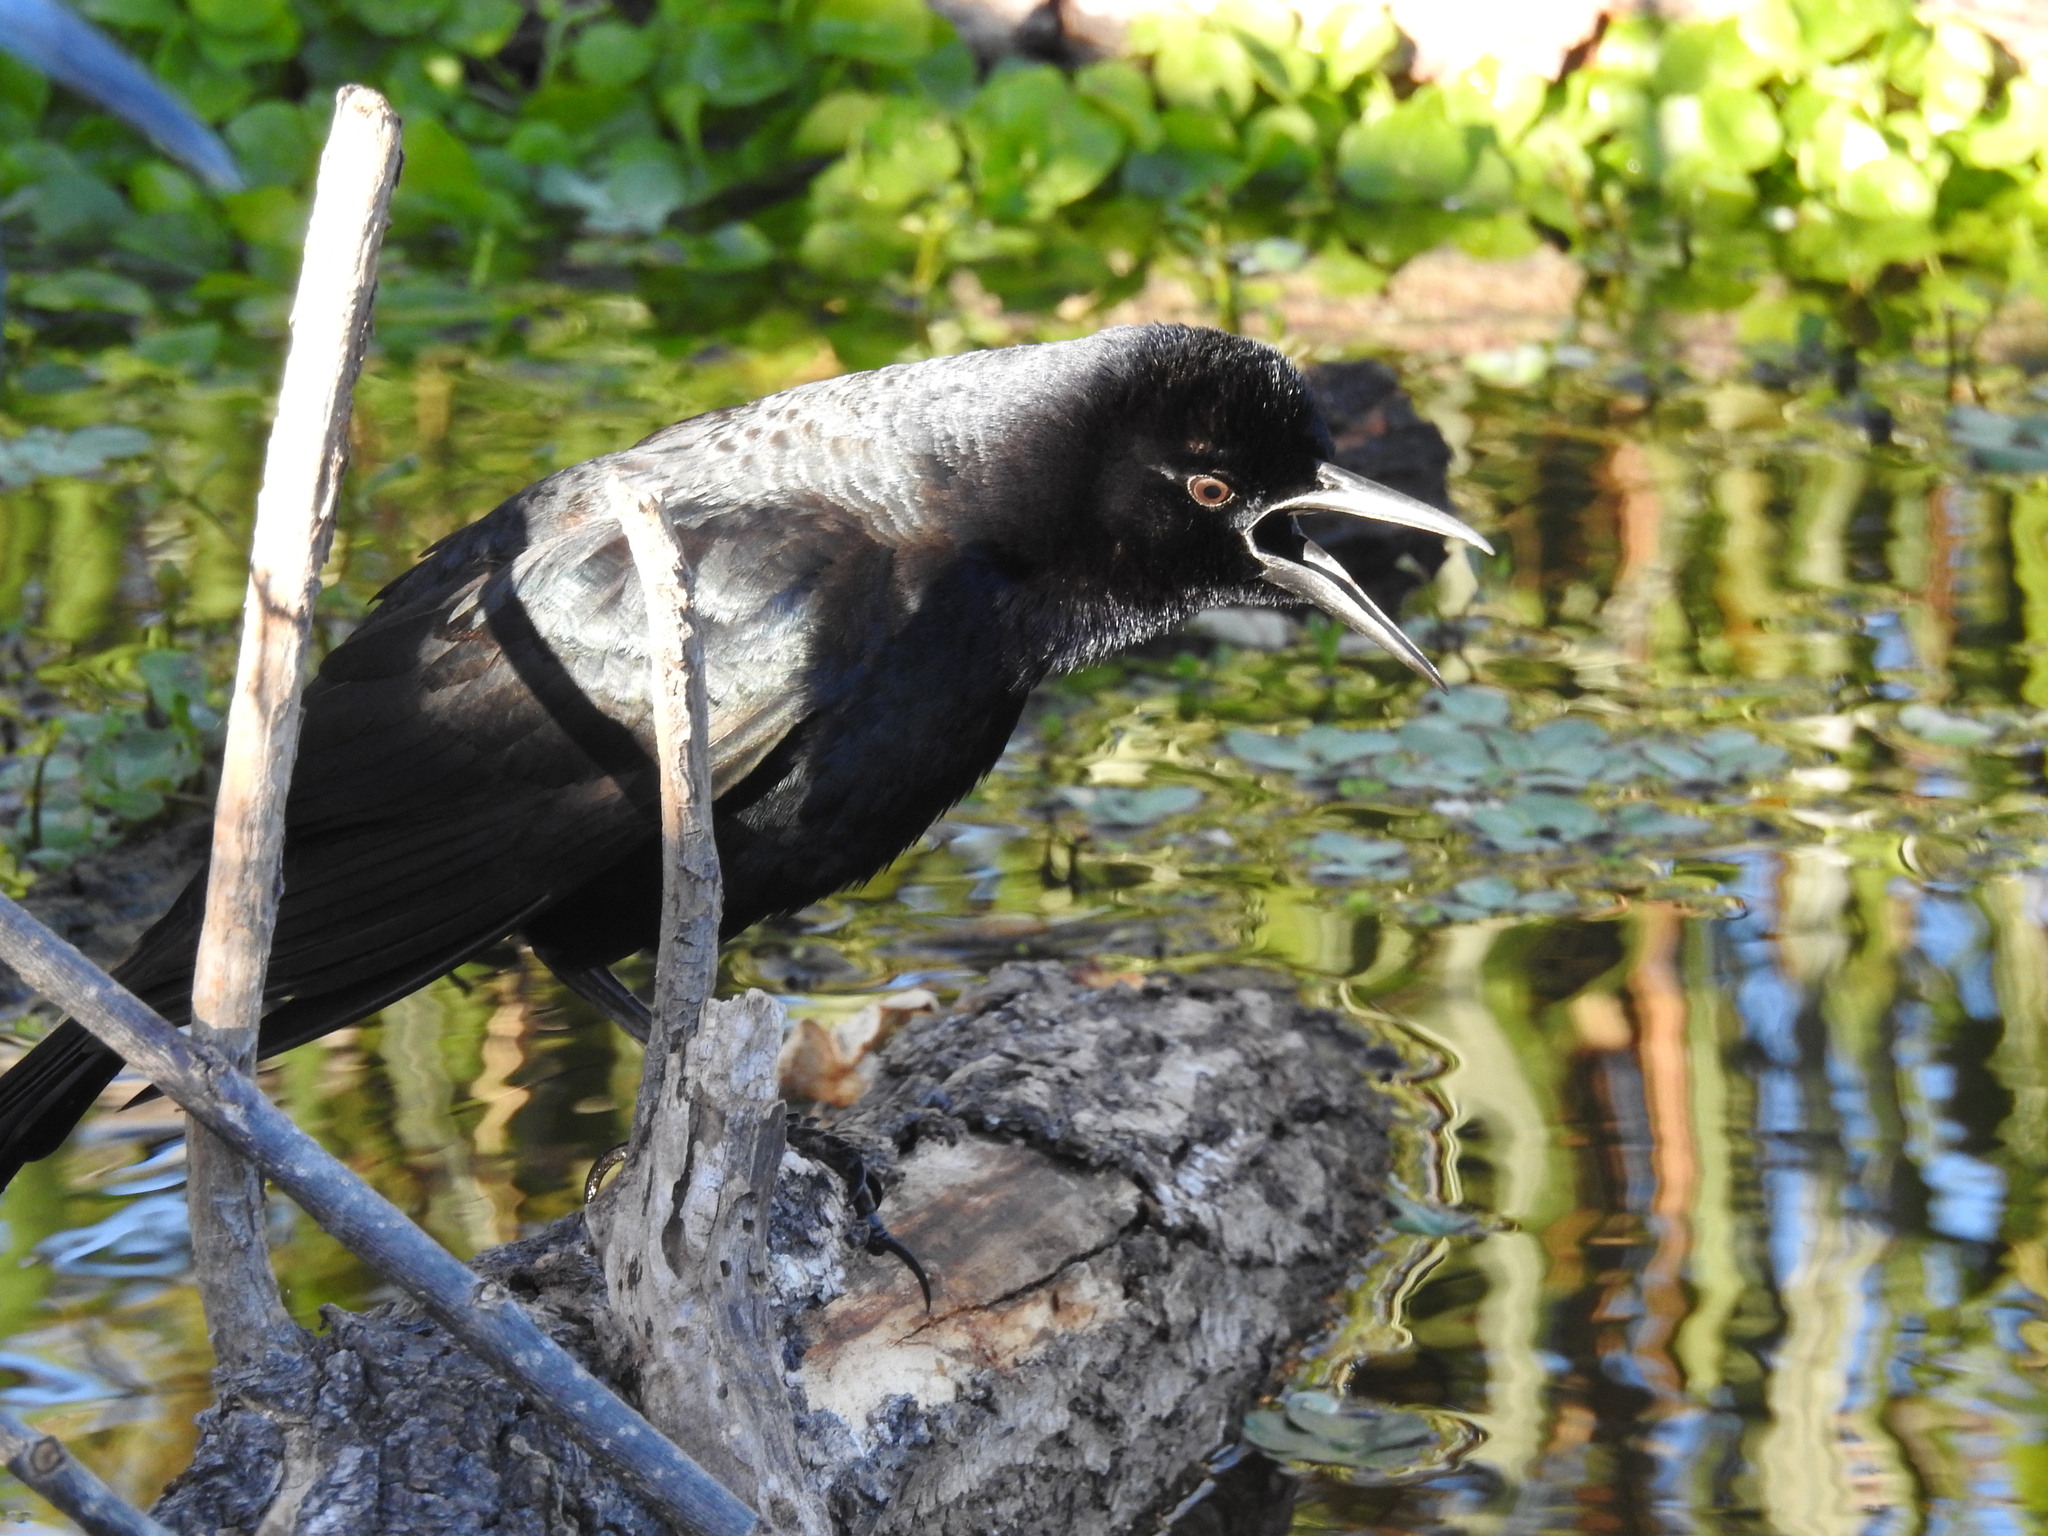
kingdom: Animalia
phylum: Chordata
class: Aves
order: Passeriformes
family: Icteridae
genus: Quiscalus
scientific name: Quiscalus major
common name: Boat-tailed grackle
